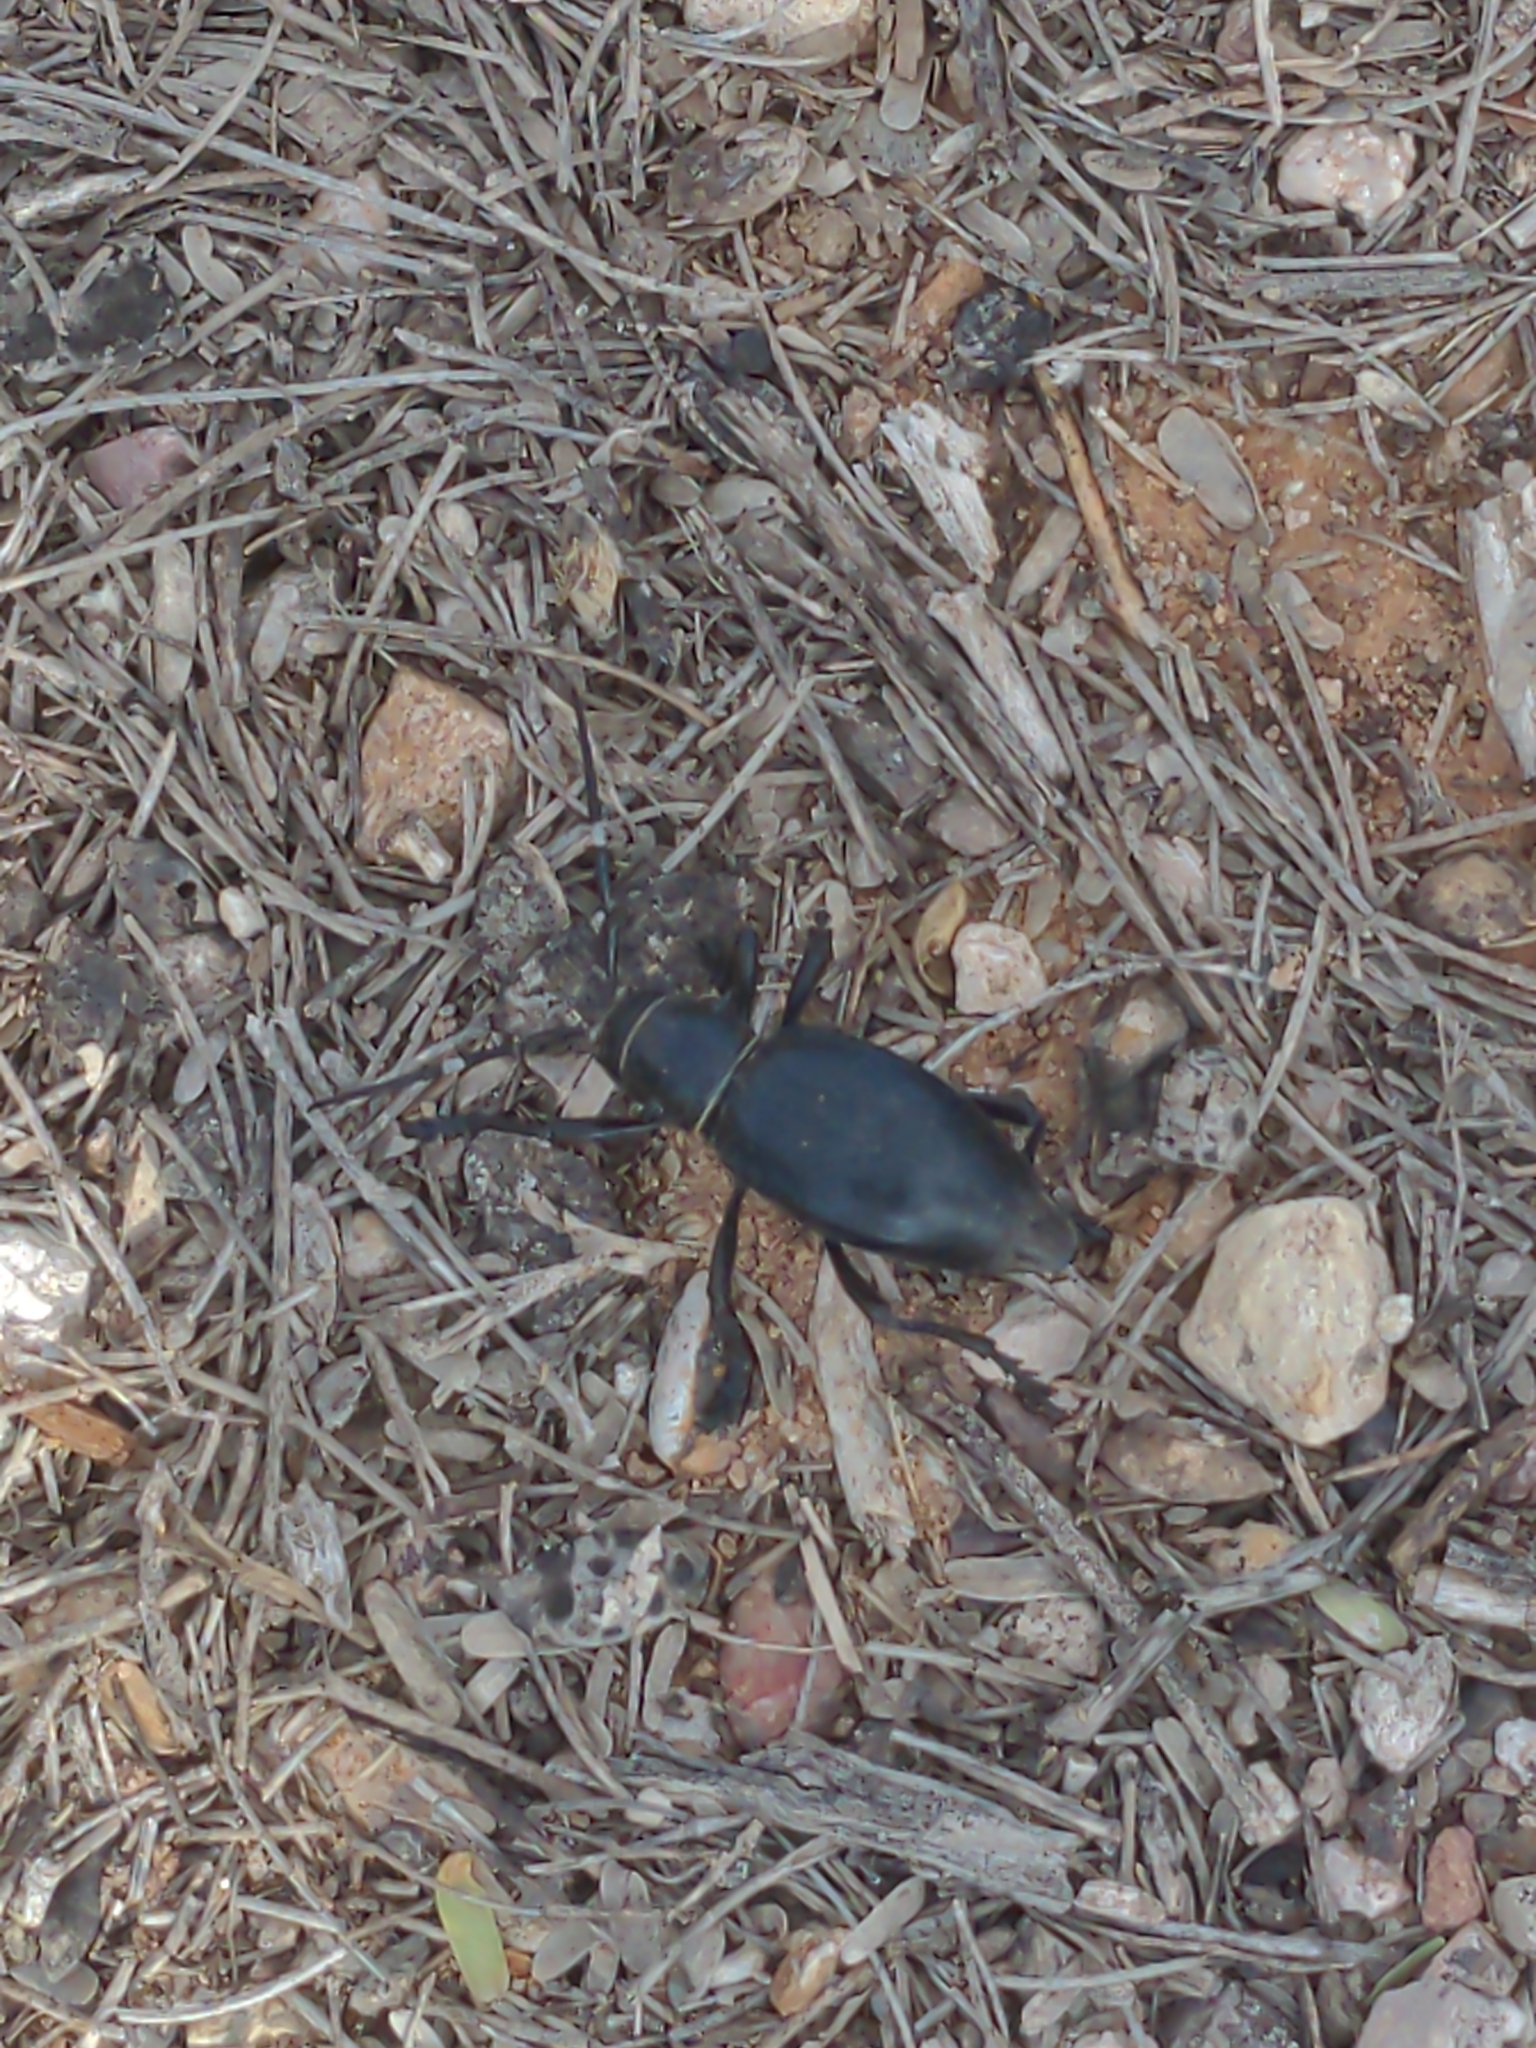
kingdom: Animalia
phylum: Arthropoda
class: Insecta
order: Coleoptera
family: Cerambycidae
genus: Moneilema
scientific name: Moneilema gigas
